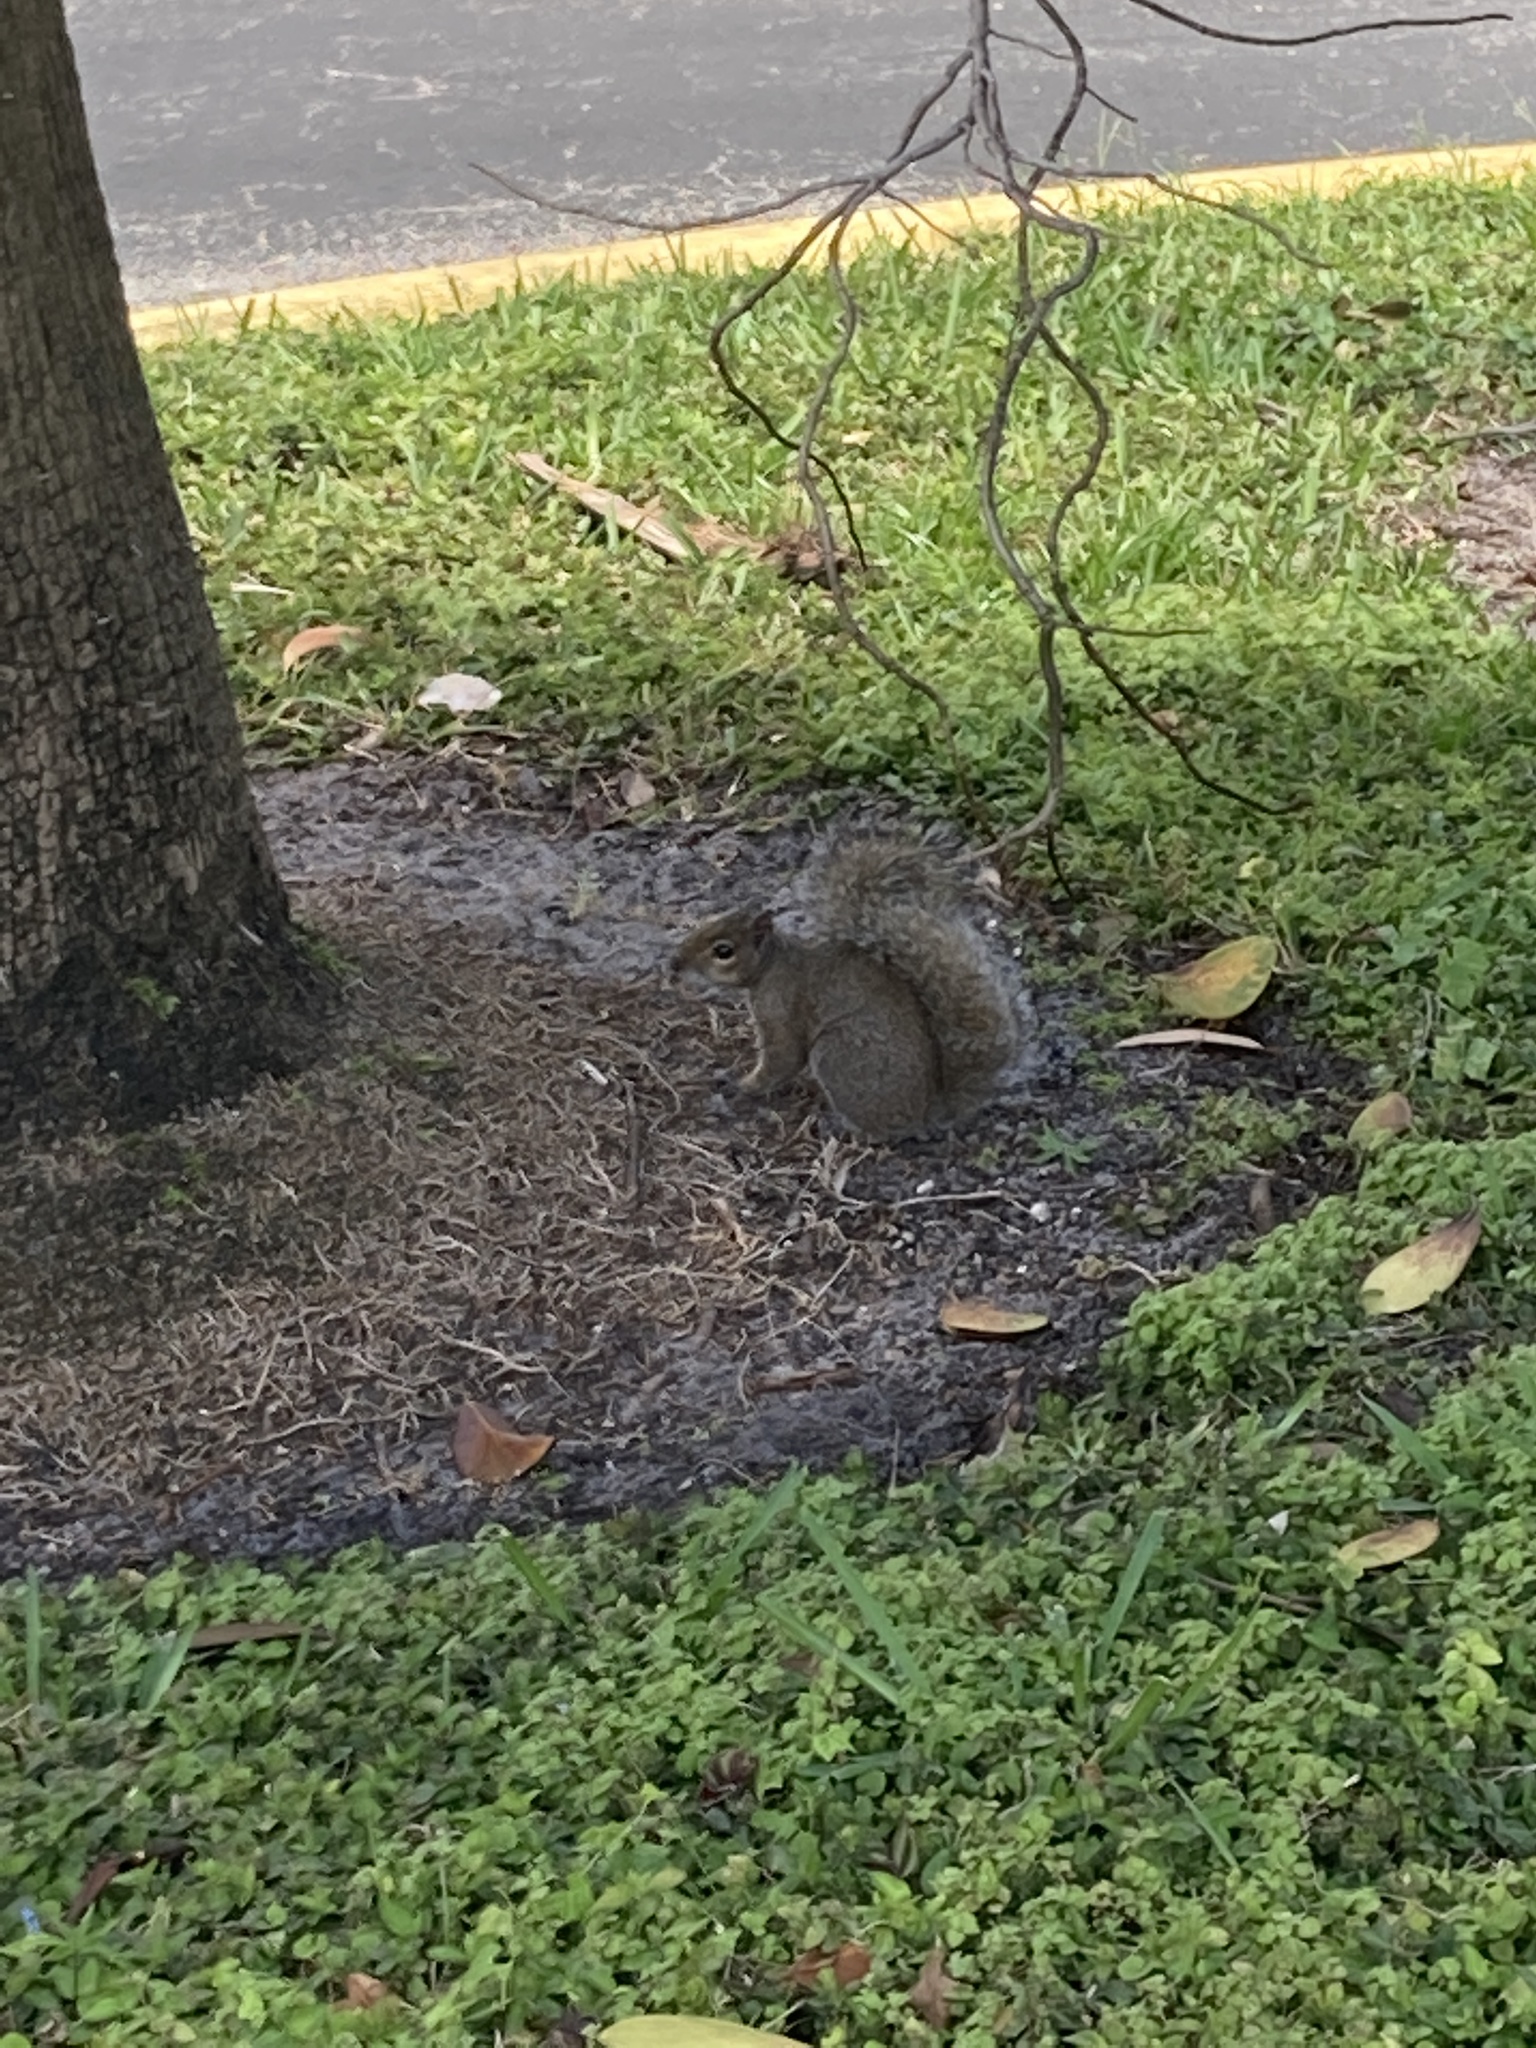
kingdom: Animalia
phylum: Chordata
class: Mammalia
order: Rodentia
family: Sciuridae
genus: Sciurus
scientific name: Sciurus carolinensis
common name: Eastern gray squirrel
